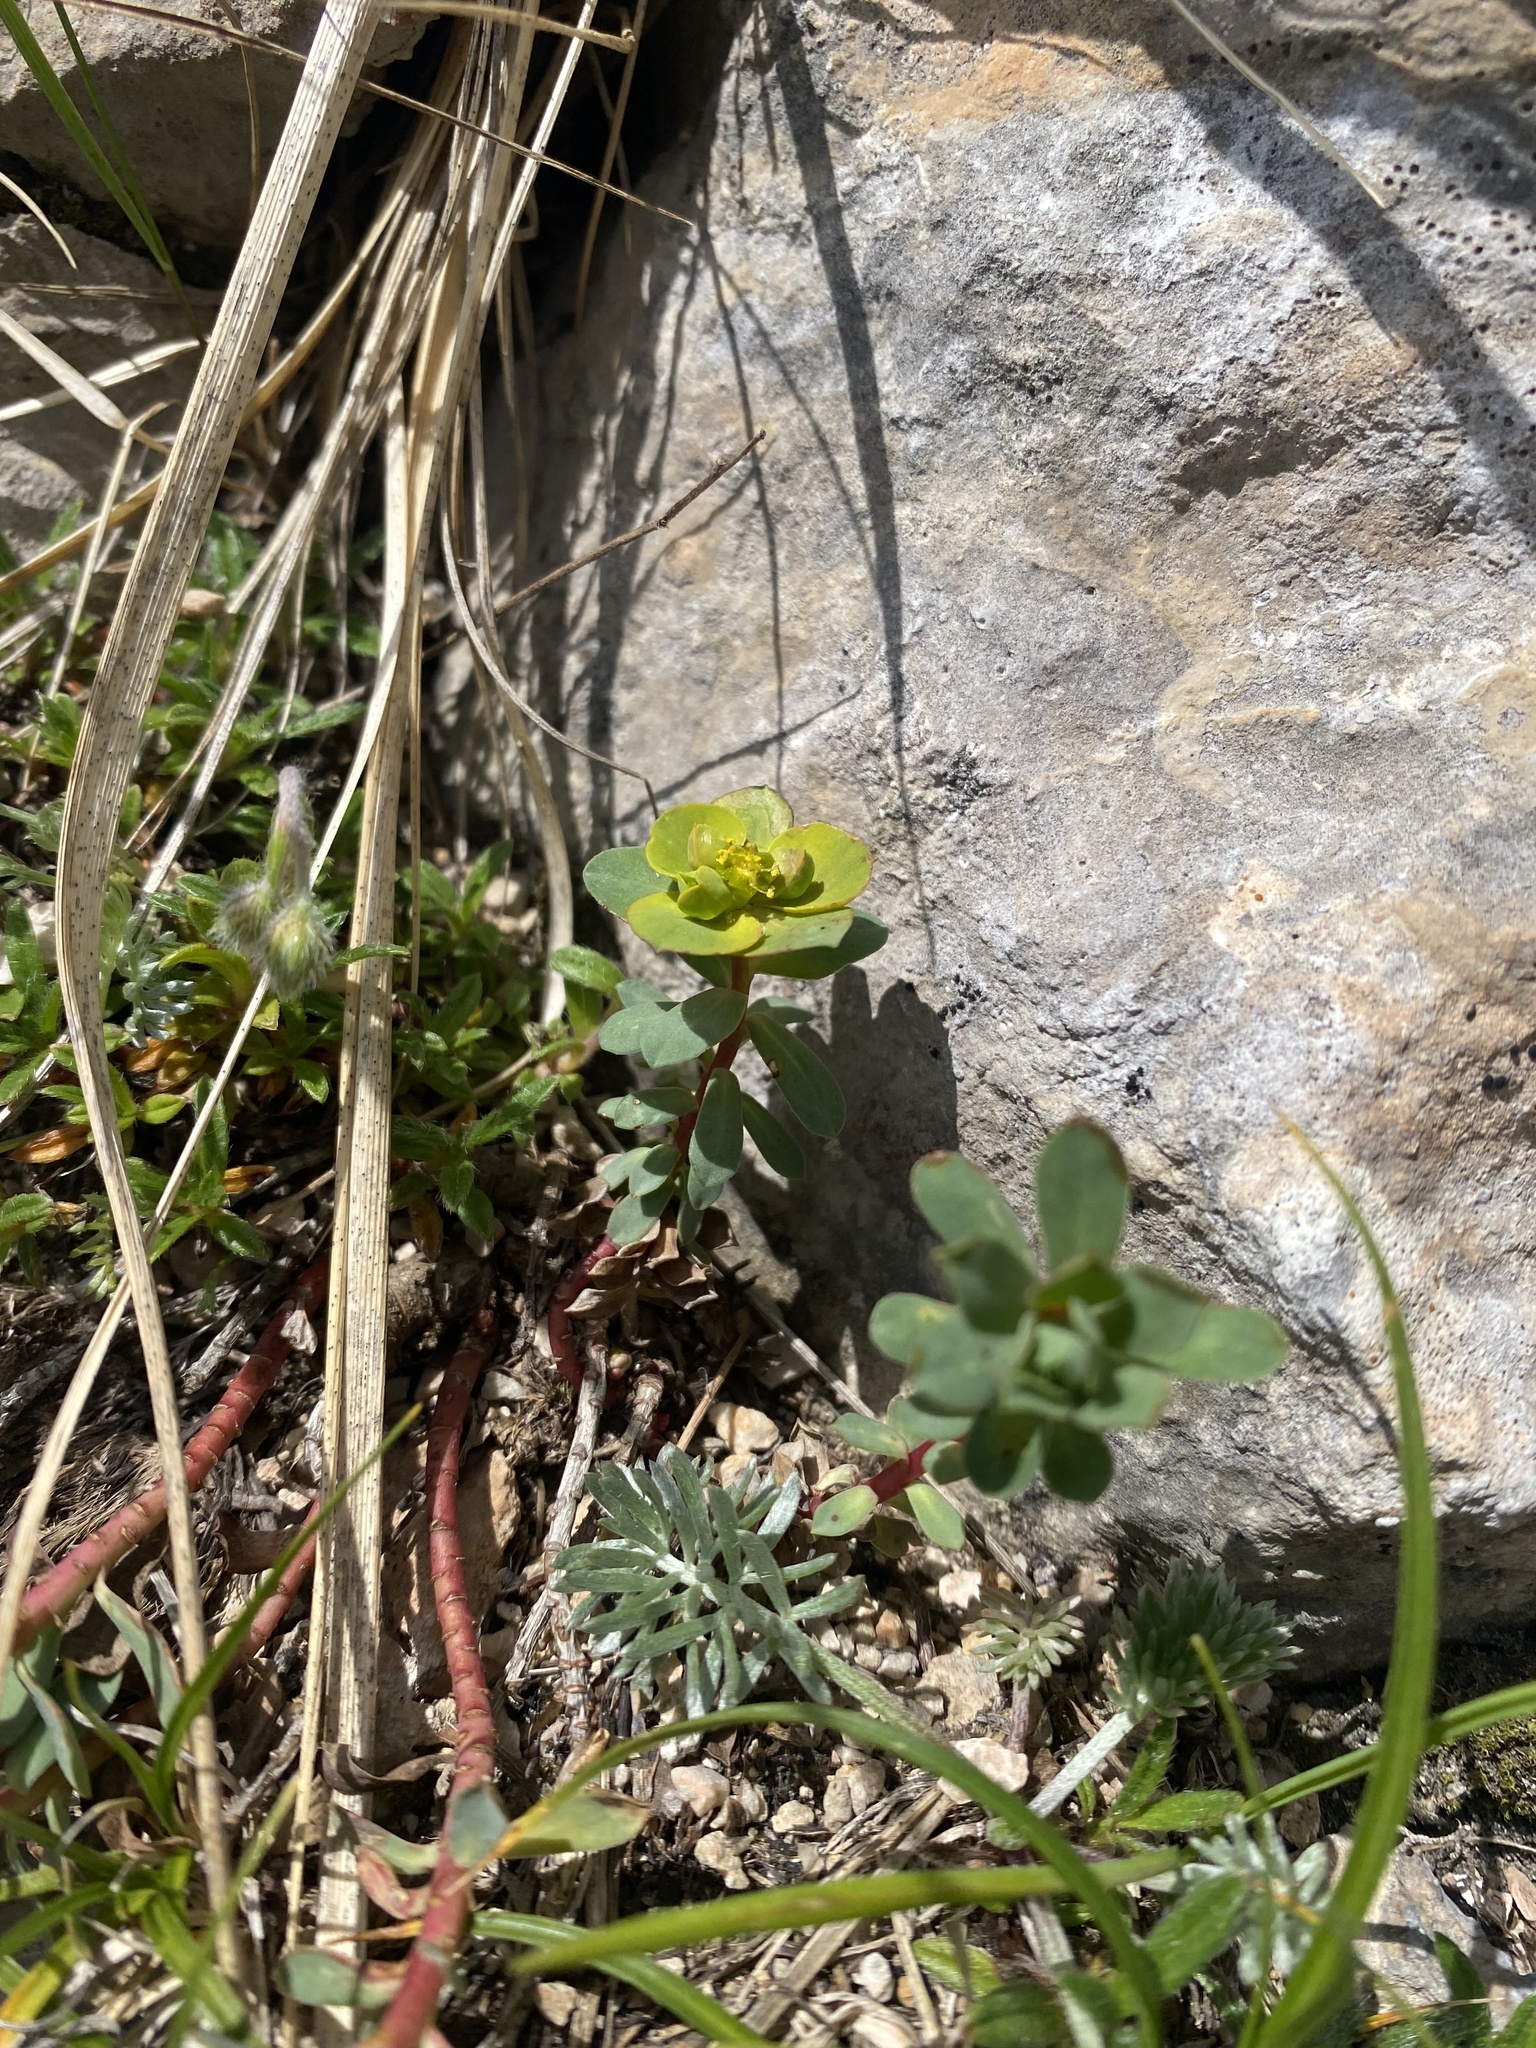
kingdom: Plantae
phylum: Tracheophyta
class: Magnoliopsida
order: Malpighiales
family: Euphorbiaceae
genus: Euphorbia
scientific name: Euphorbia petrophila
